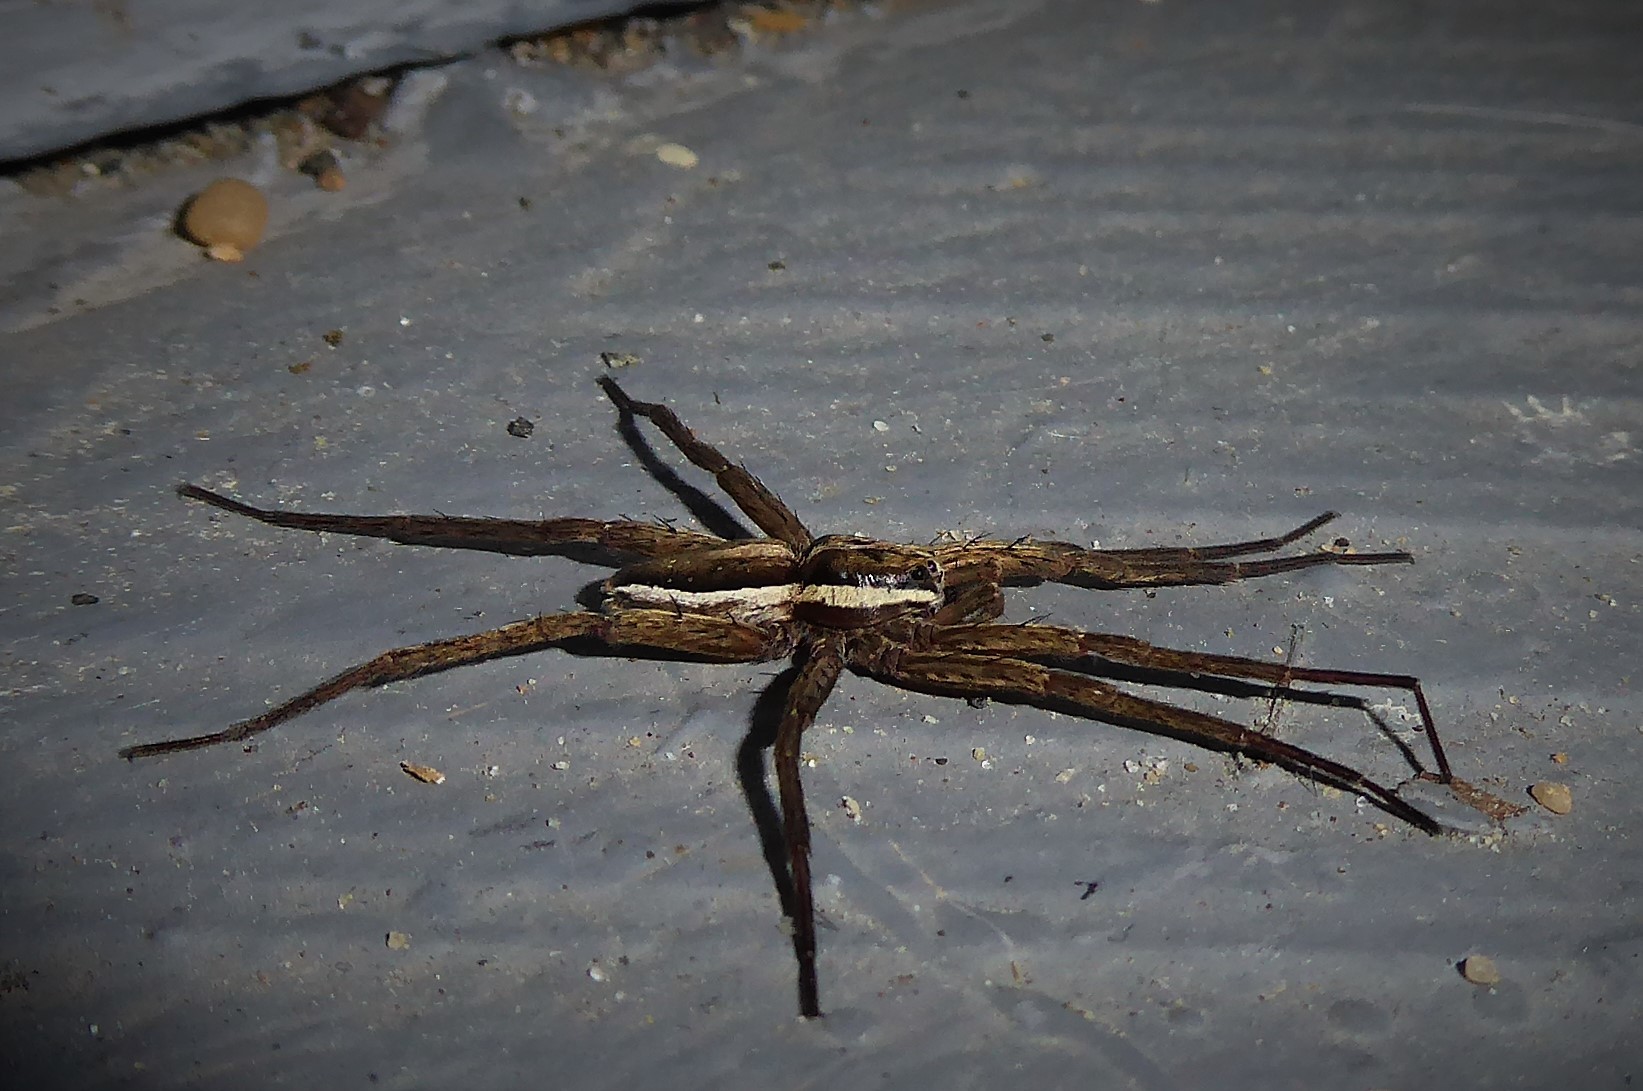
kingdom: Animalia
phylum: Arthropoda
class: Arachnida
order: Araneae
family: Pisauridae
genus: Dolomedes
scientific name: Dolomedes minor
